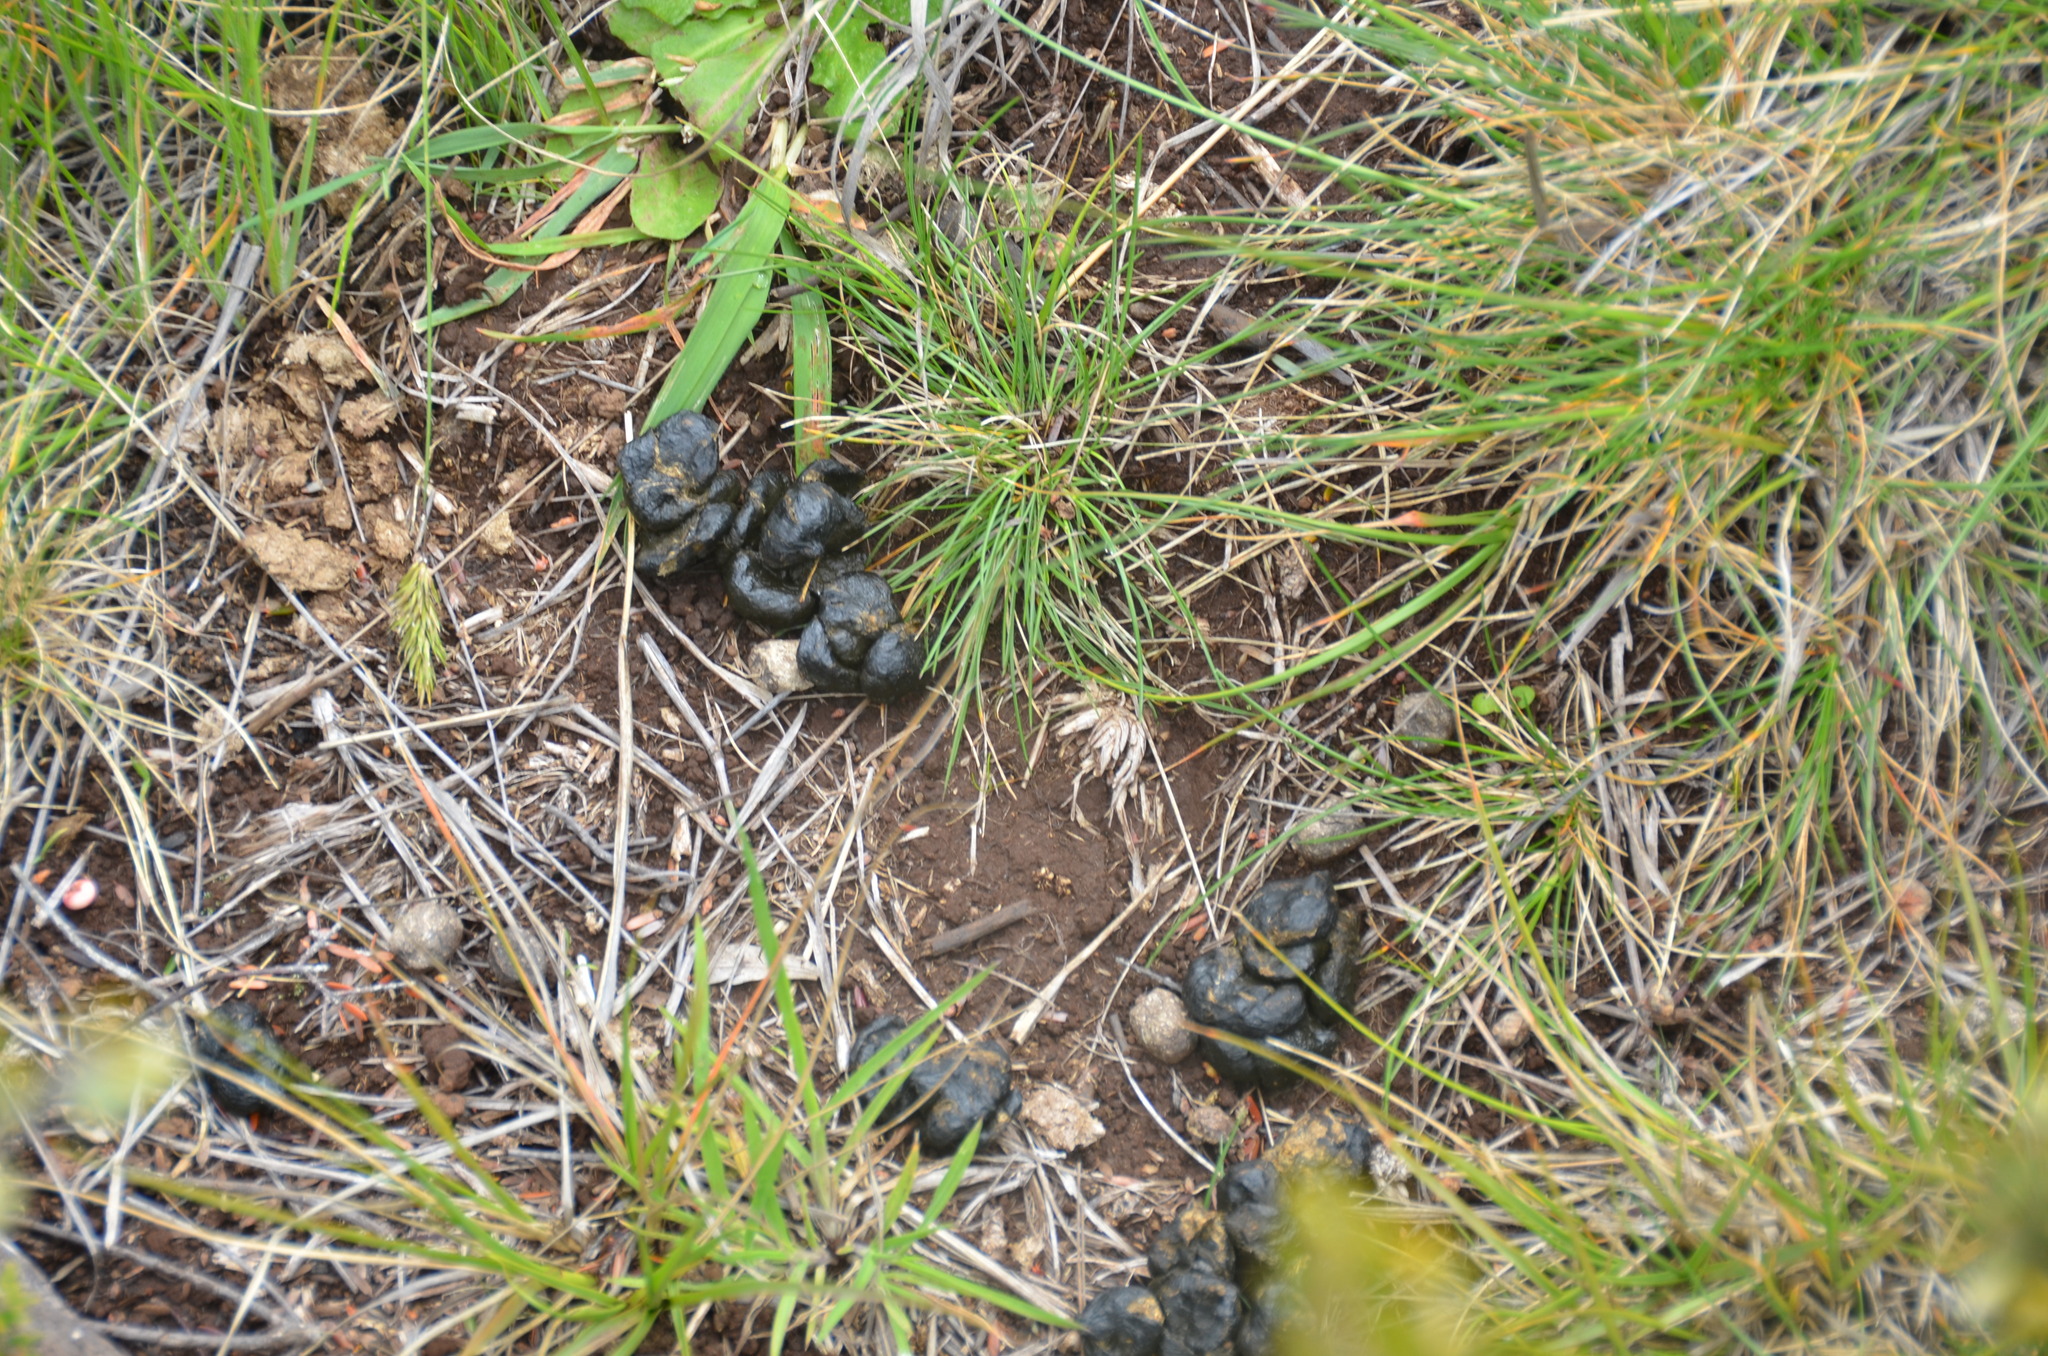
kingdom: Animalia
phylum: Chordata
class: Mammalia
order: Artiodactyla
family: Bovidae
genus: Capra
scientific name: Capra hircus
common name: Domestic goat
